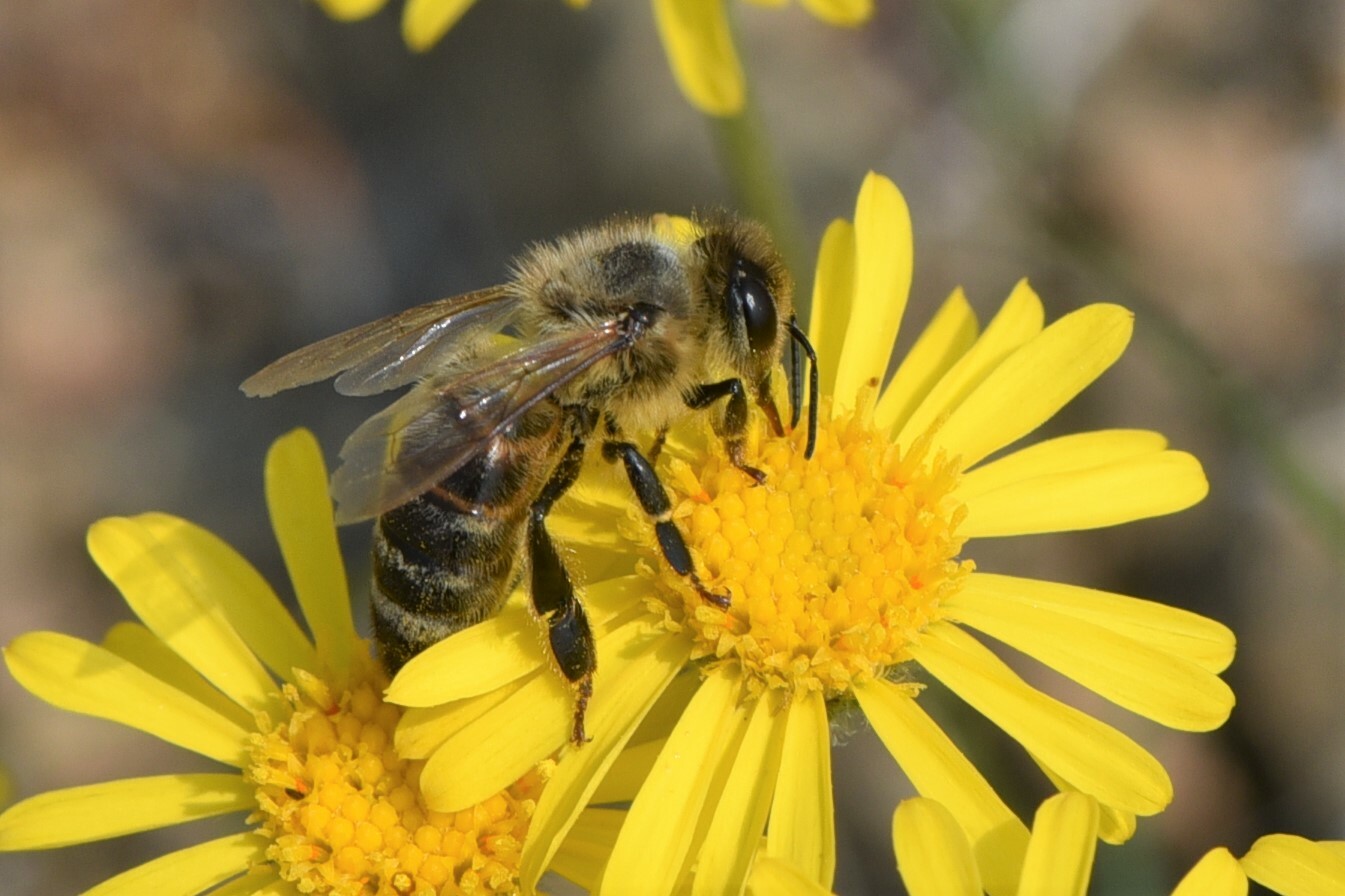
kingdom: Animalia
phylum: Arthropoda
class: Insecta
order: Hymenoptera
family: Apidae
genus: Apis
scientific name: Apis mellifera
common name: Honey bee
